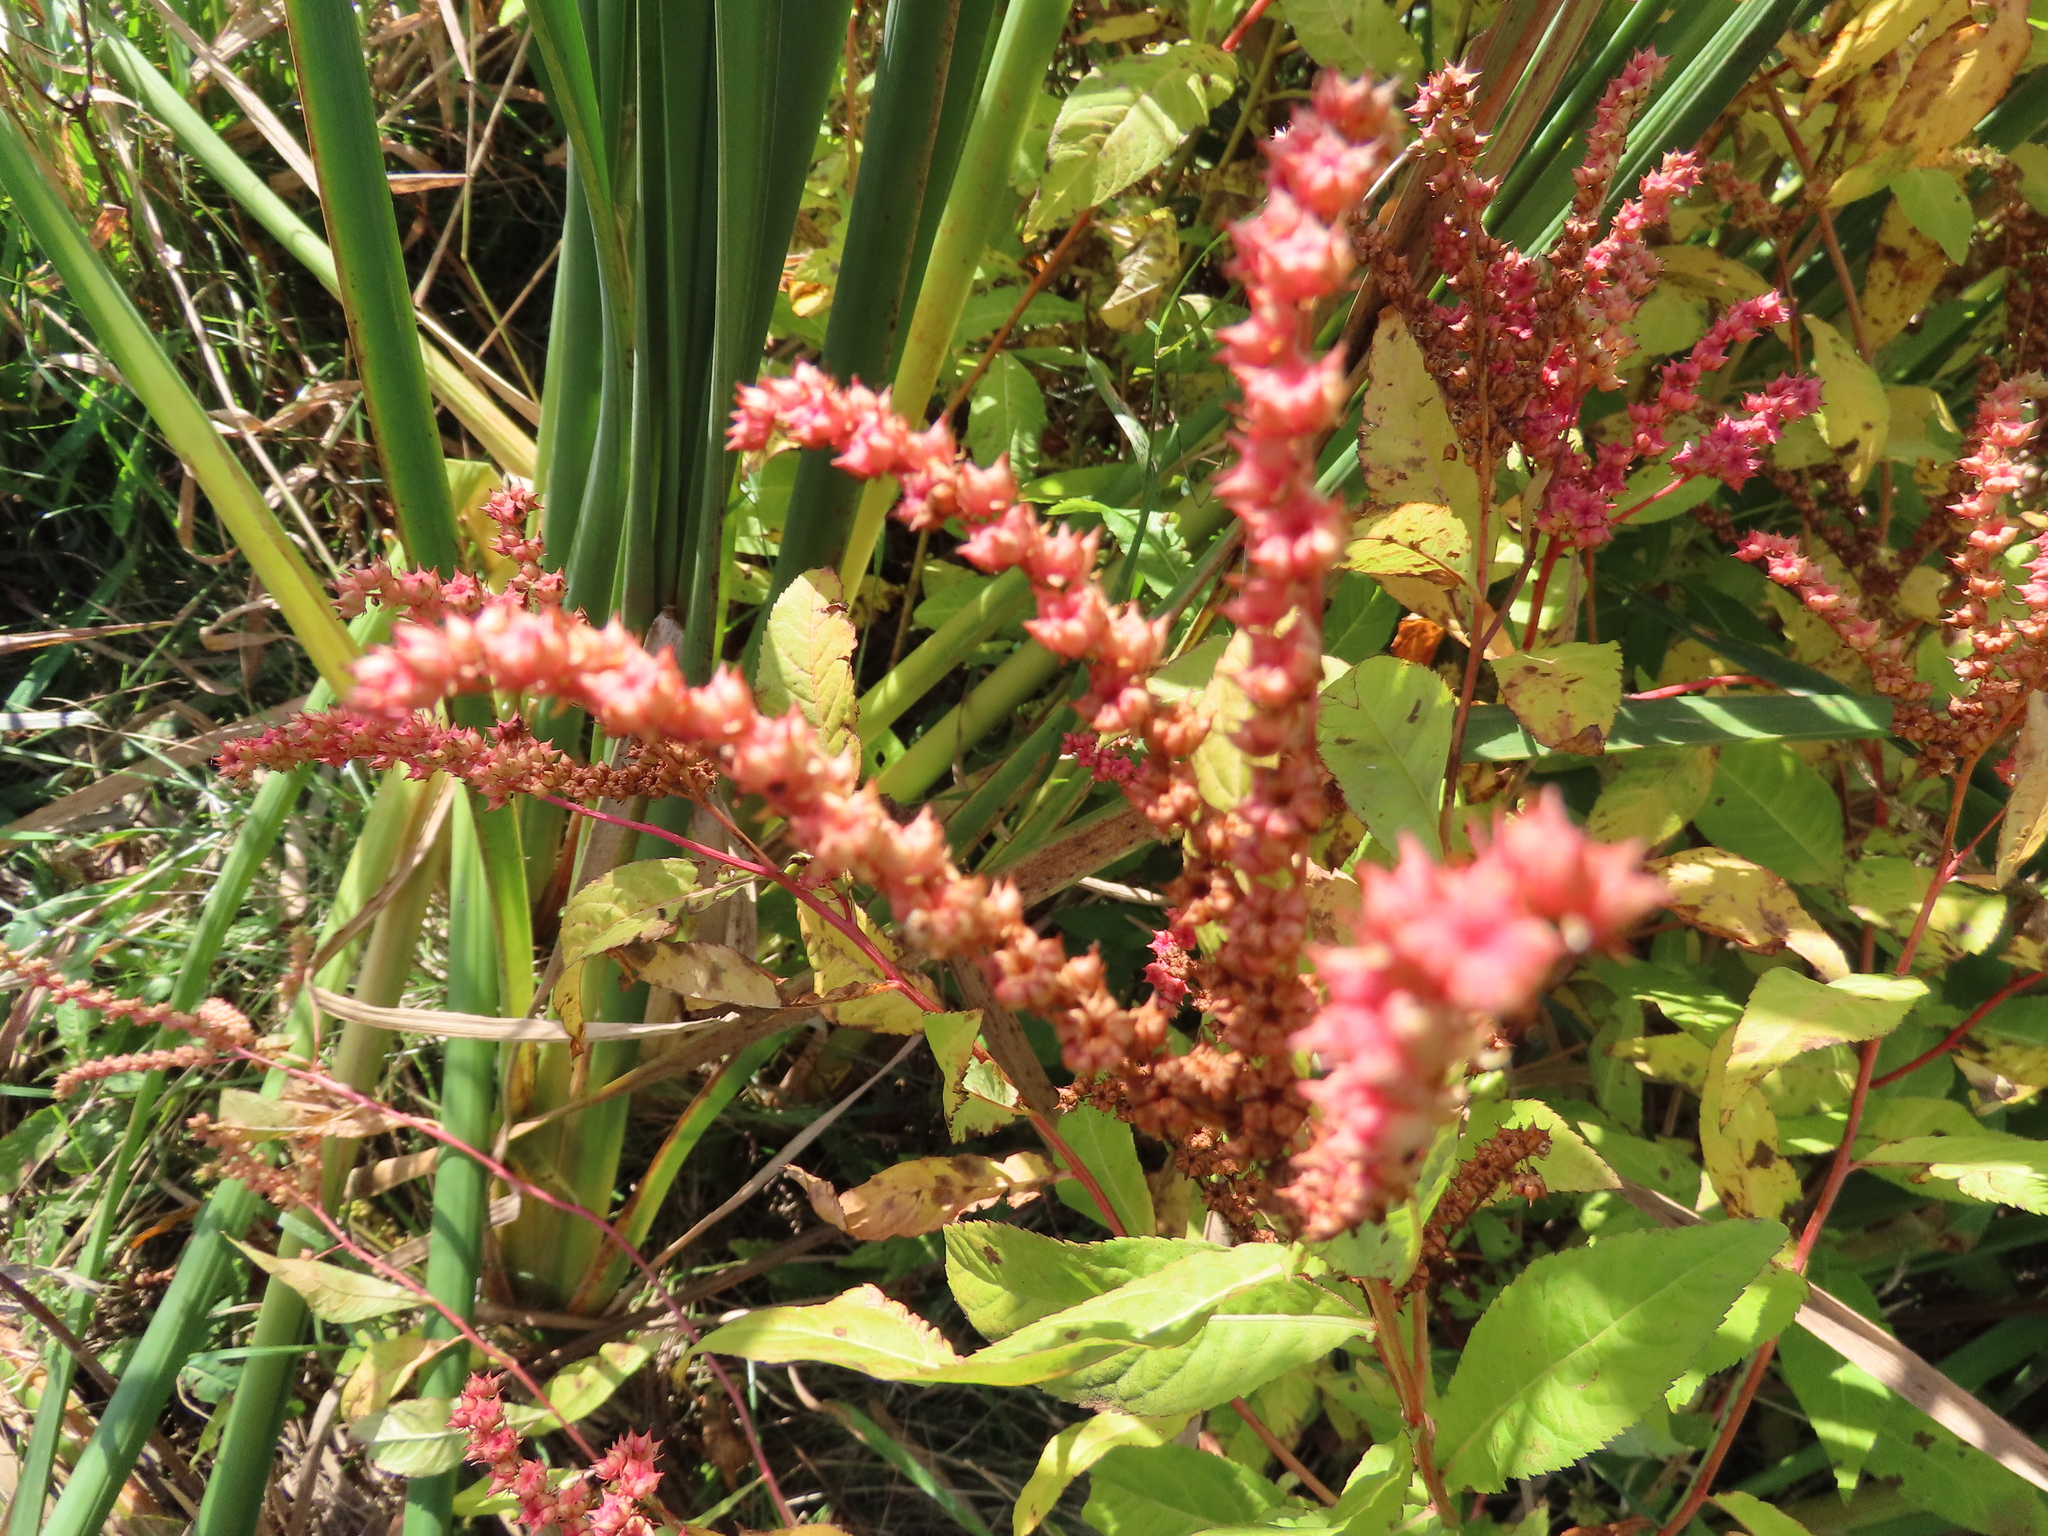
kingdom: Plantae
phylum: Tracheophyta
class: Magnoliopsida
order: Saxifragales
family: Penthoraceae
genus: Penthorum
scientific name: Penthorum sedoides
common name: Ditch stonecrop
